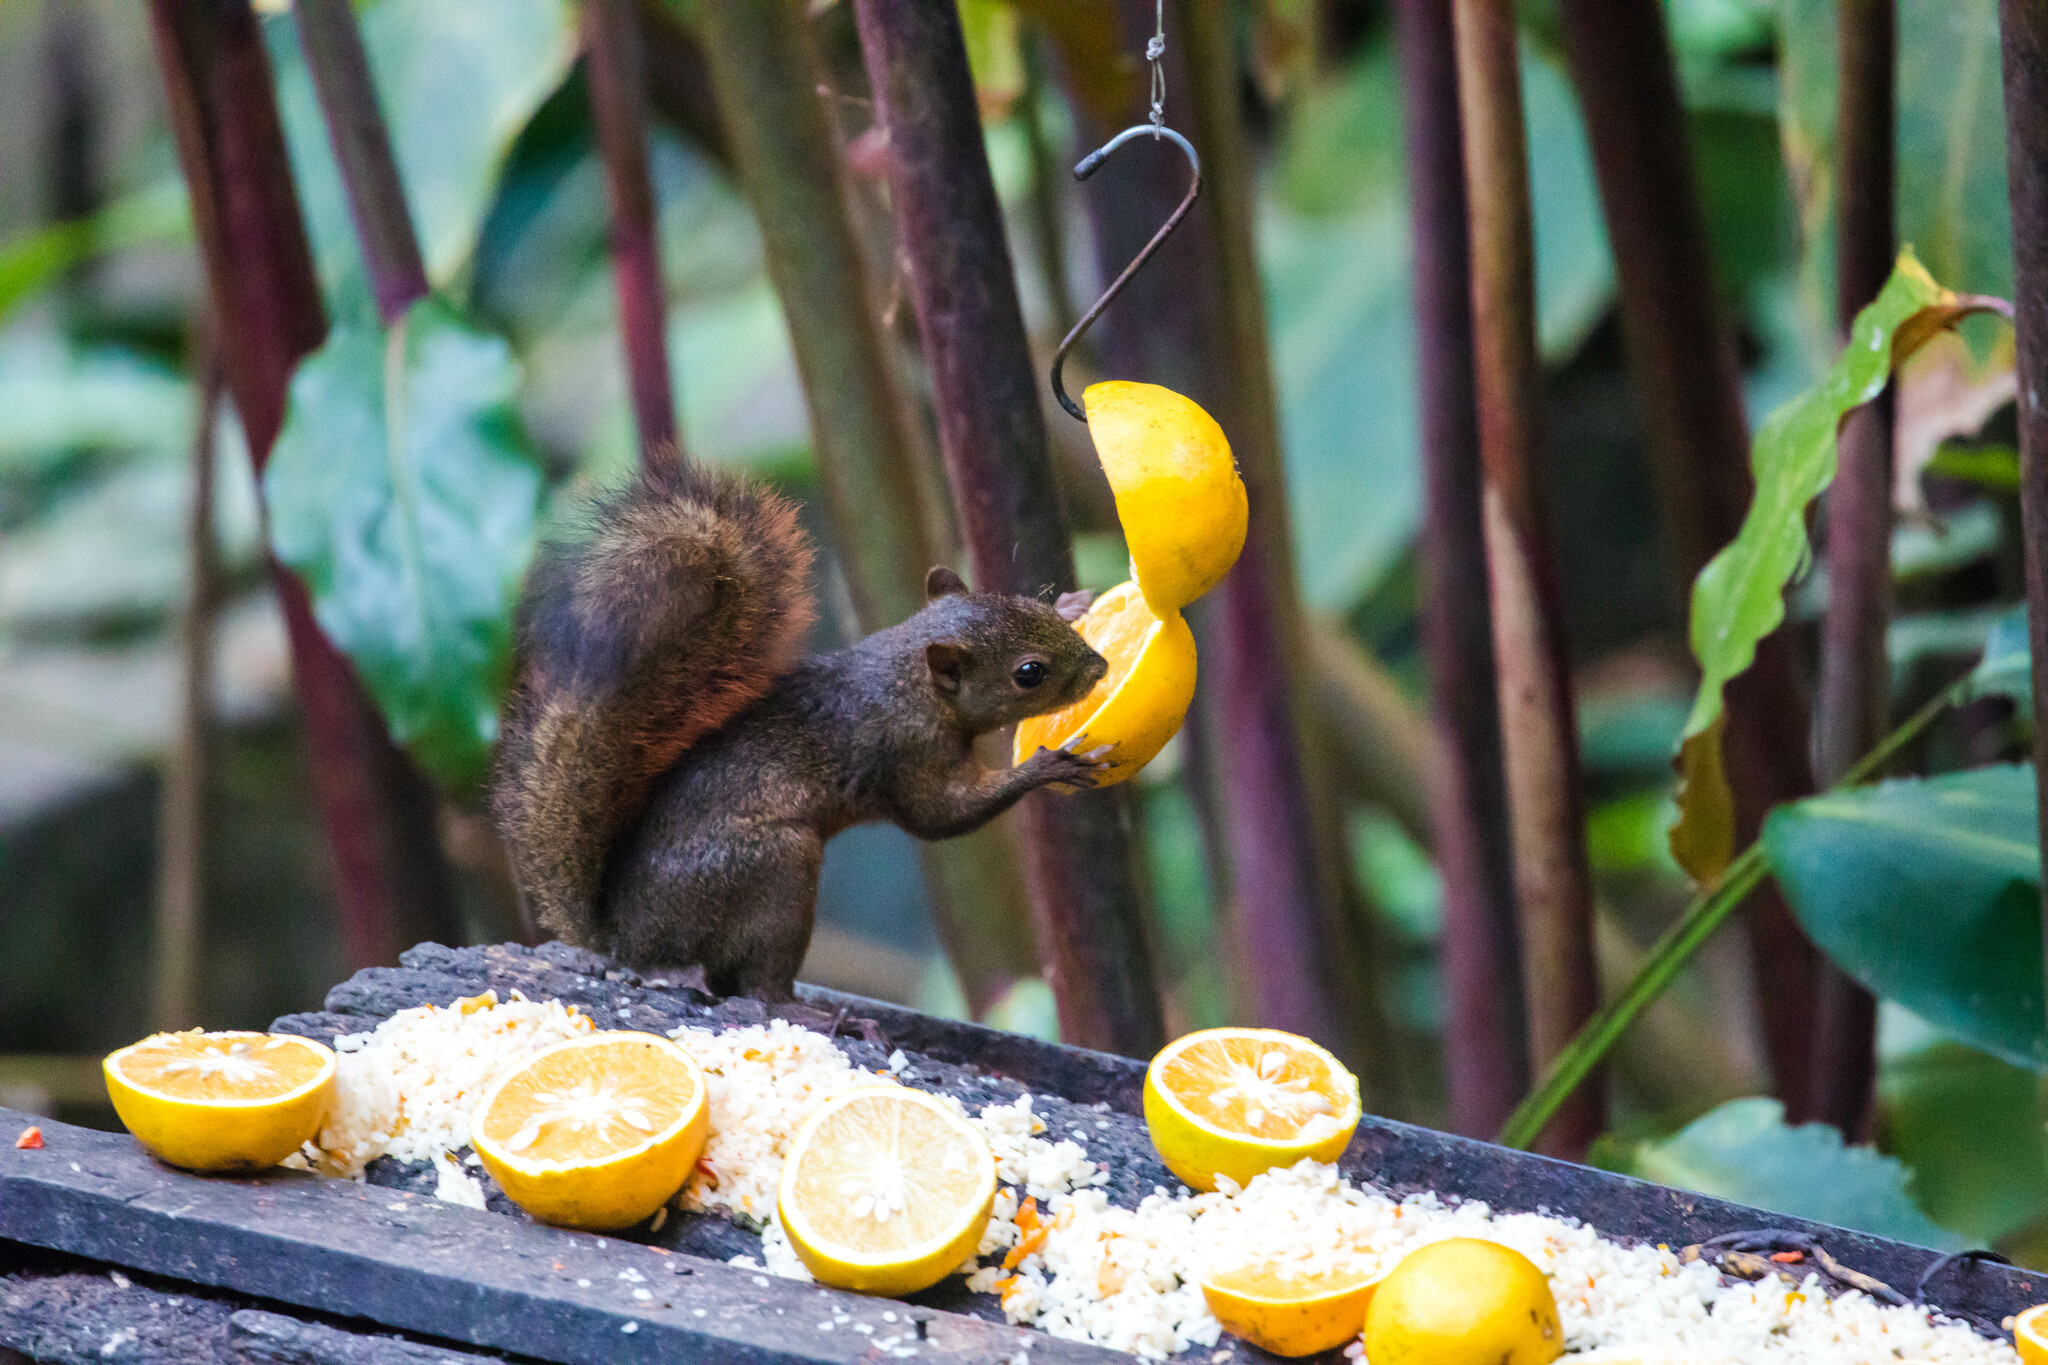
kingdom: Animalia
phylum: Chordata
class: Mammalia
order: Rodentia
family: Sciuridae
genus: Sciurus
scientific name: Sciurus granatensis
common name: Red-tailed squirrel
